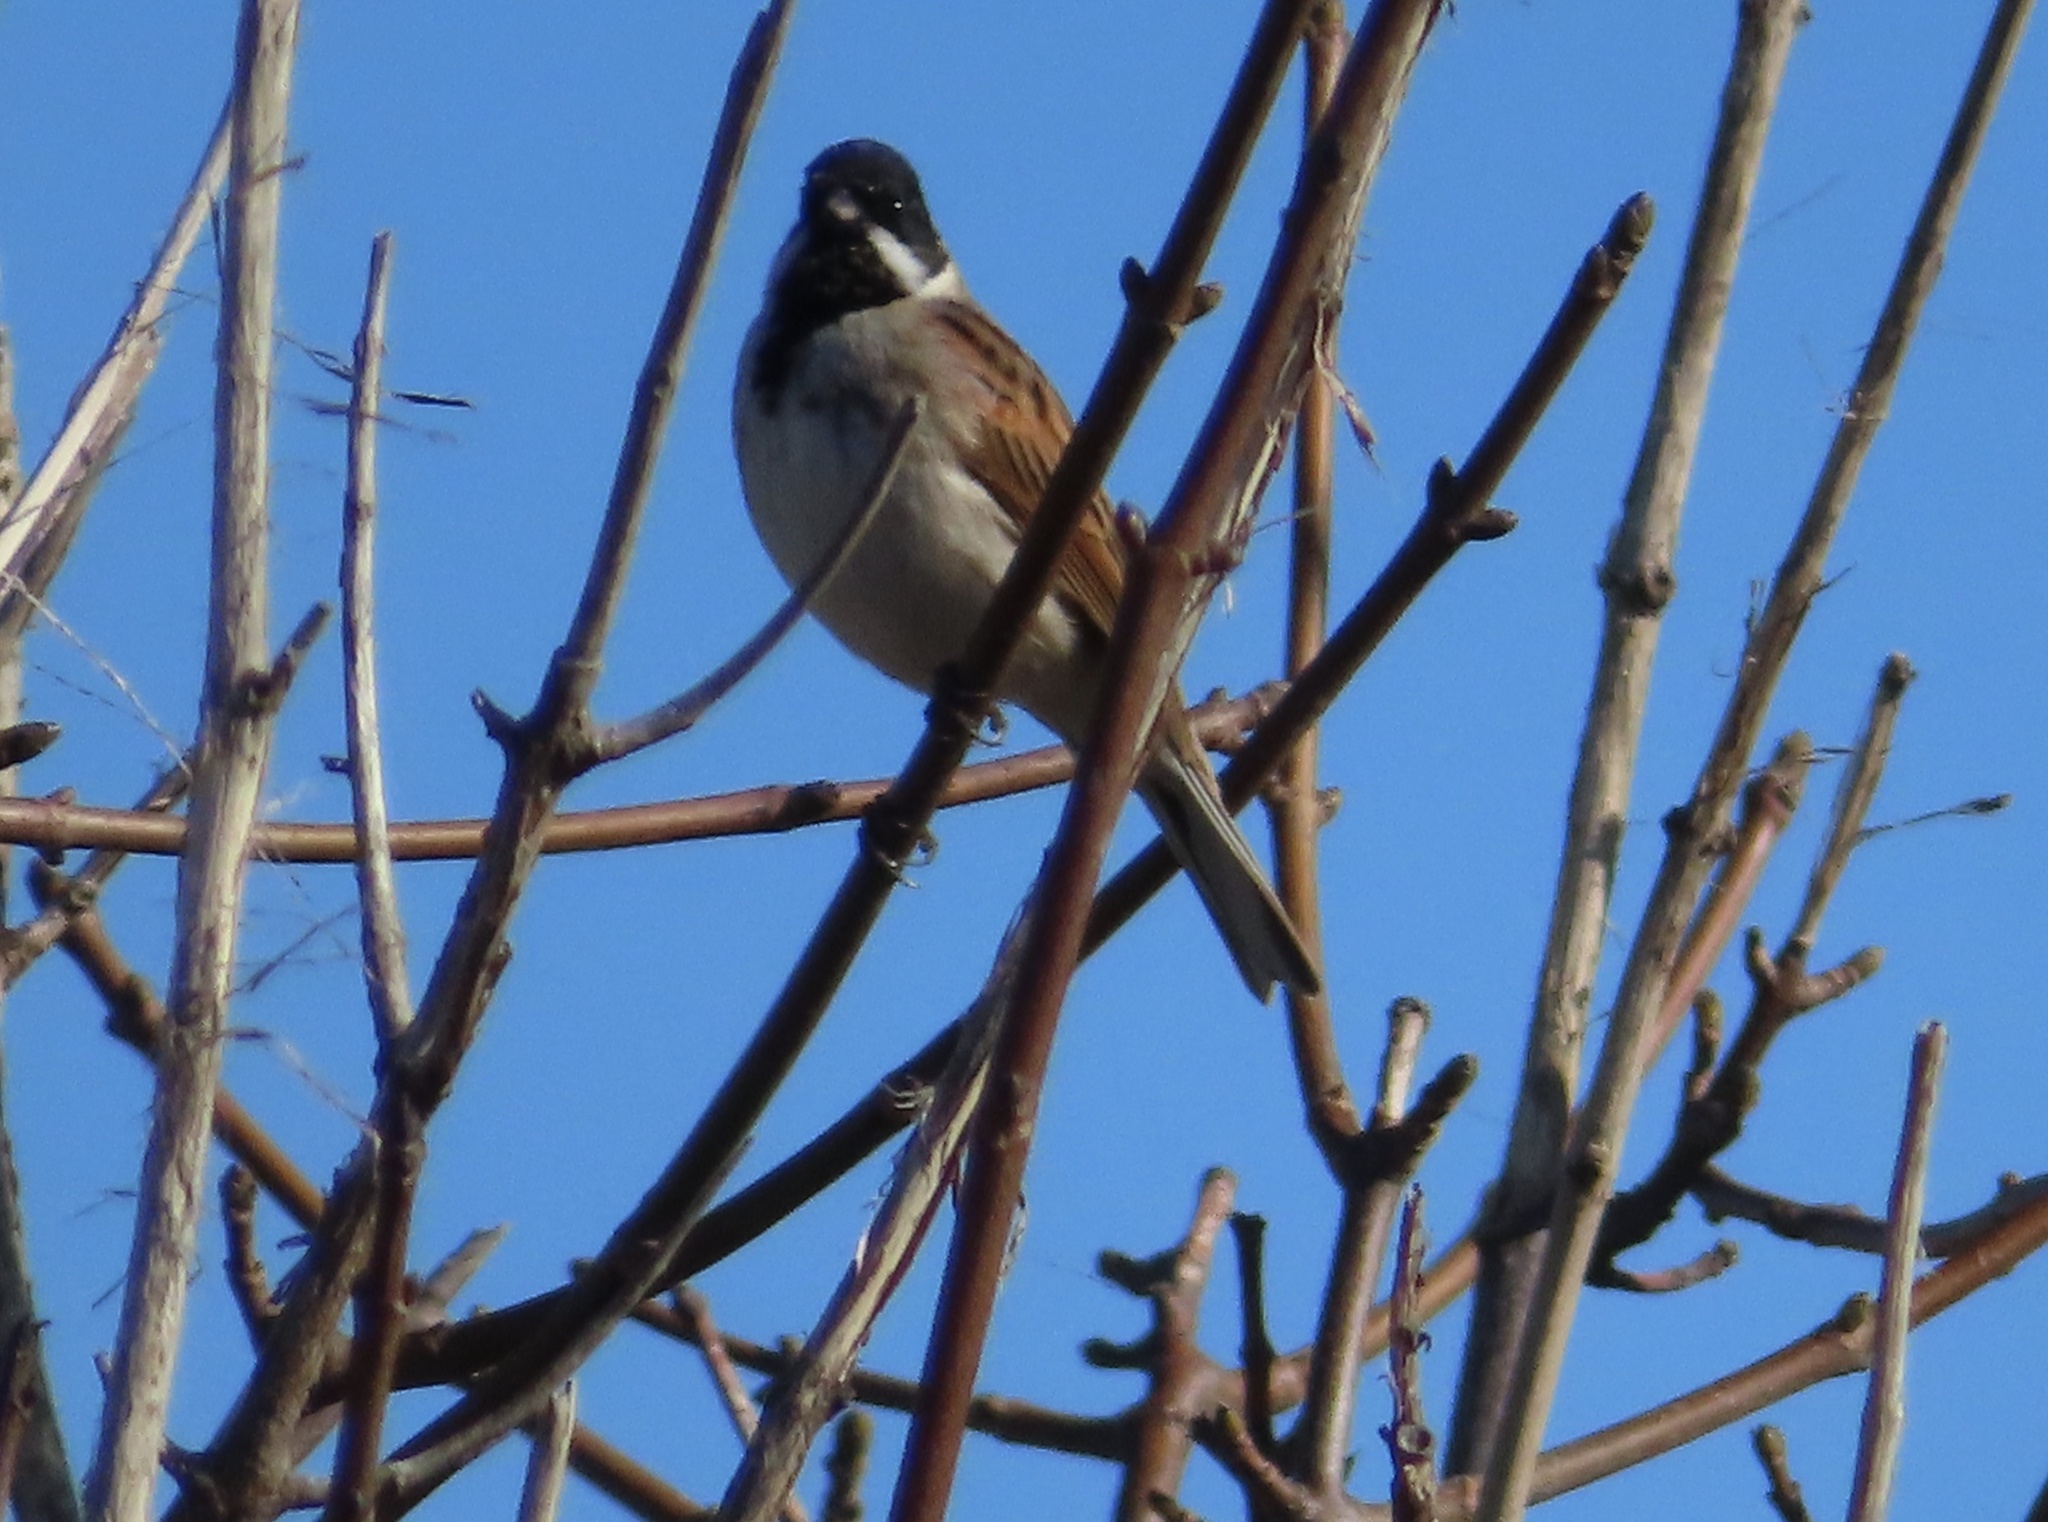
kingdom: Animalia
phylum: Chordata
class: Aves
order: Passeriformes
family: Emberizidae
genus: Emberiza
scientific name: Emberiza schoeniclus
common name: Reed bunting
